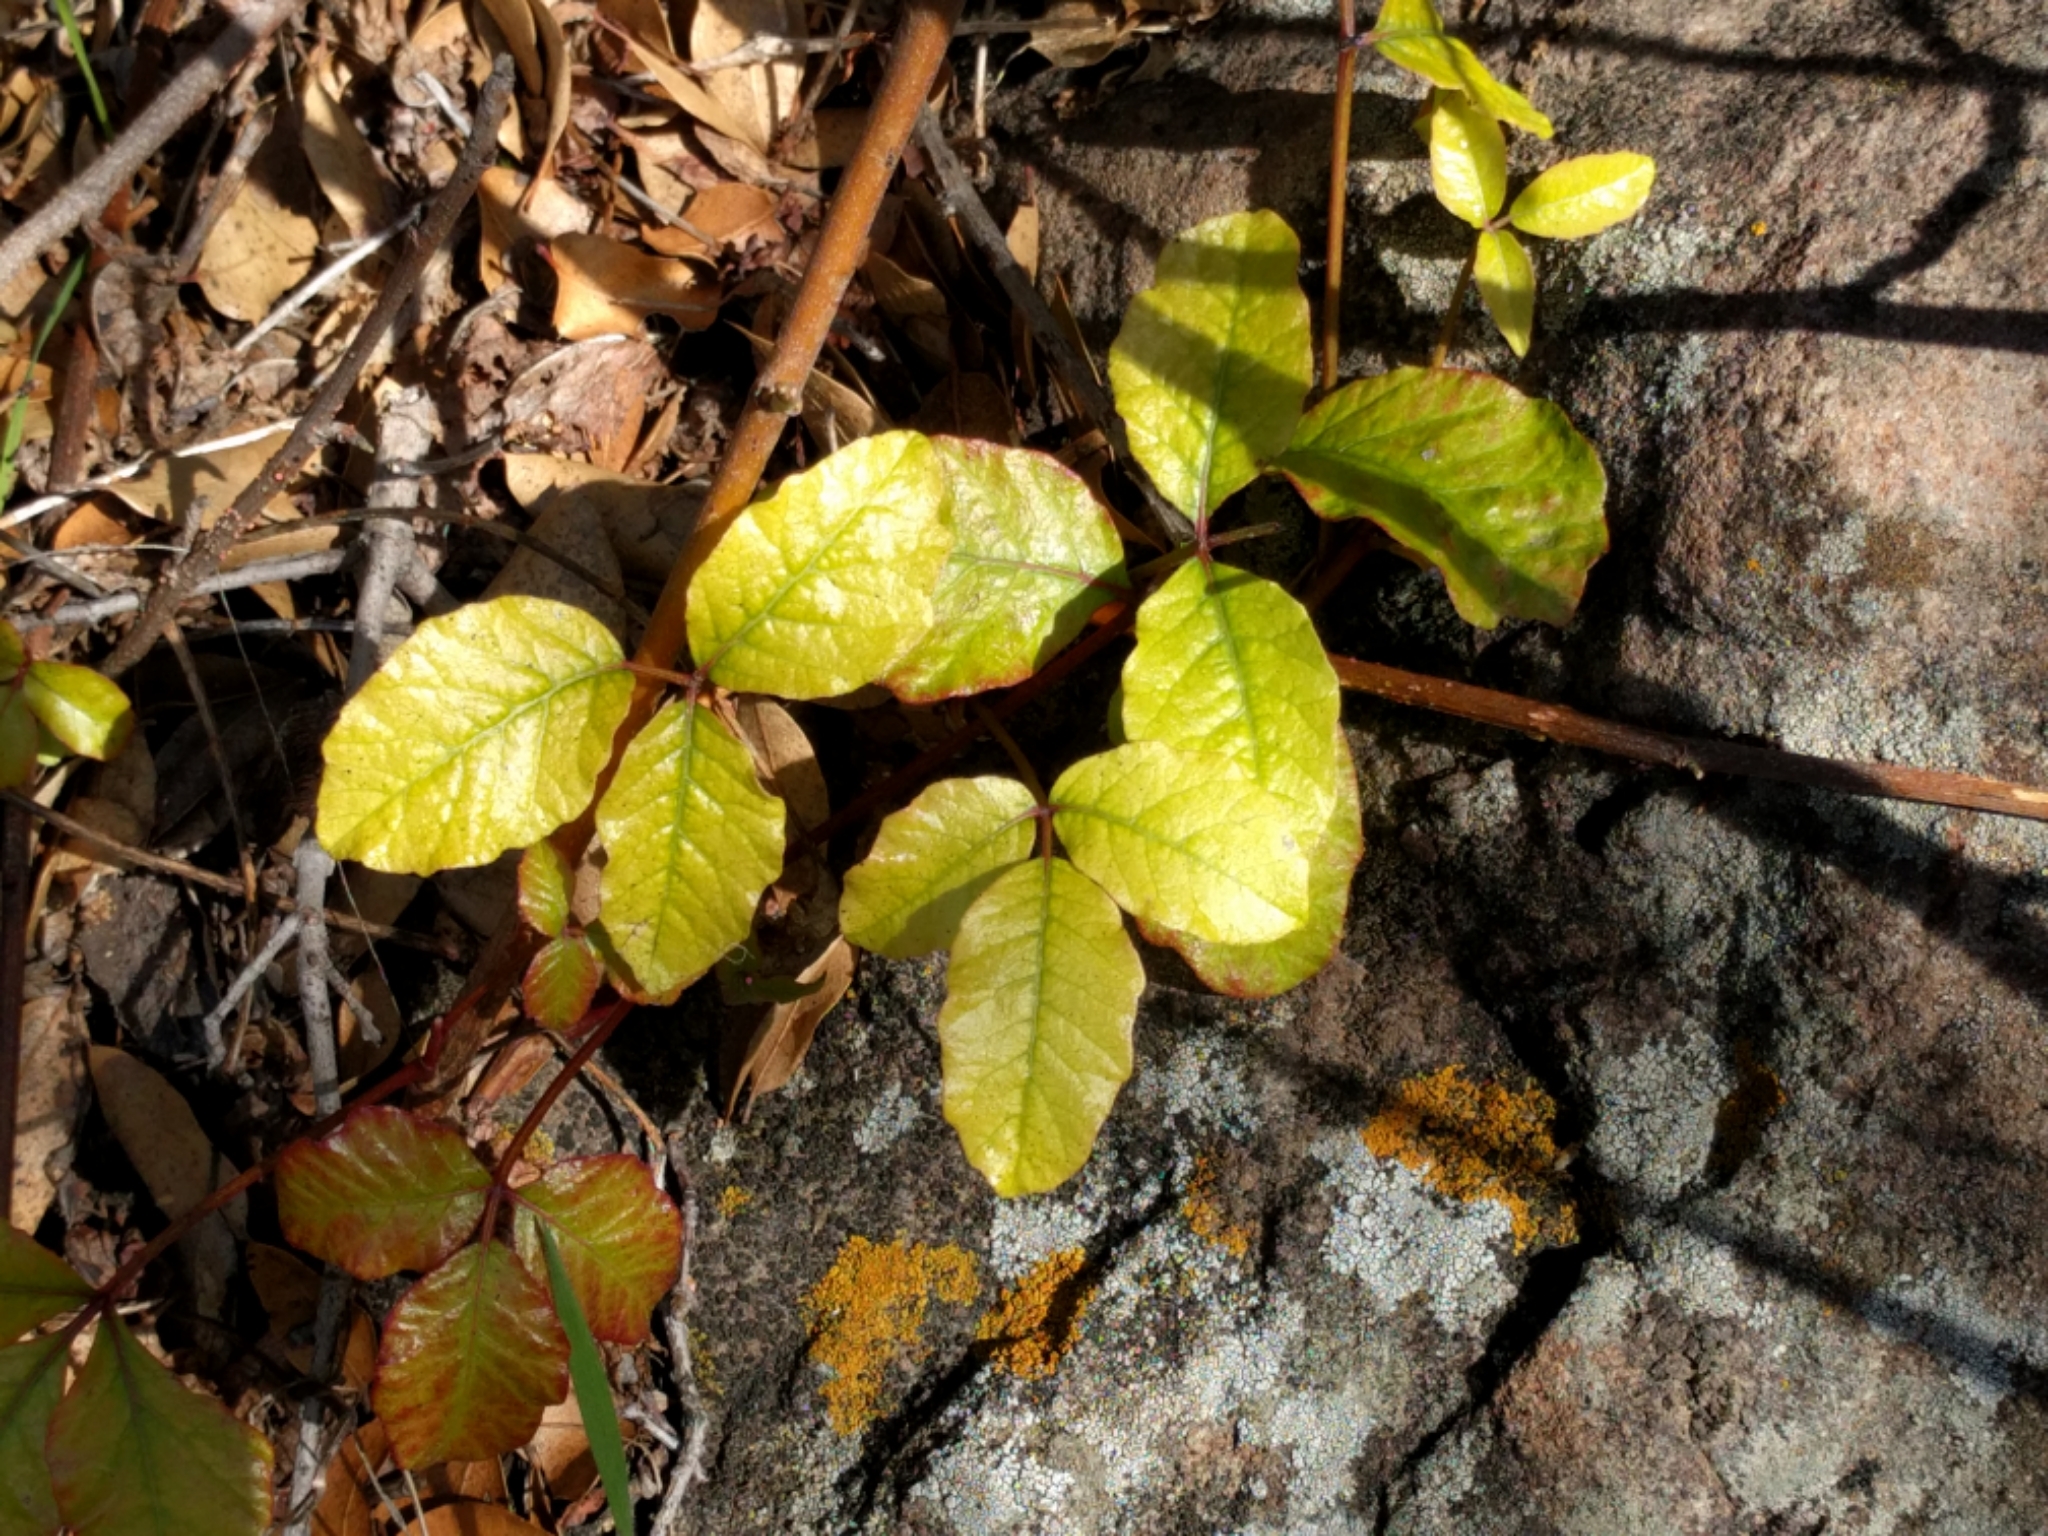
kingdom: Plantae
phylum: Tracheophyta
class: Magnoliopsida
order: Sapindales
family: Anacardiaceae
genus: Toxicodendron
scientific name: Toxicodendron diversilobum
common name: Pacific poison-oak
